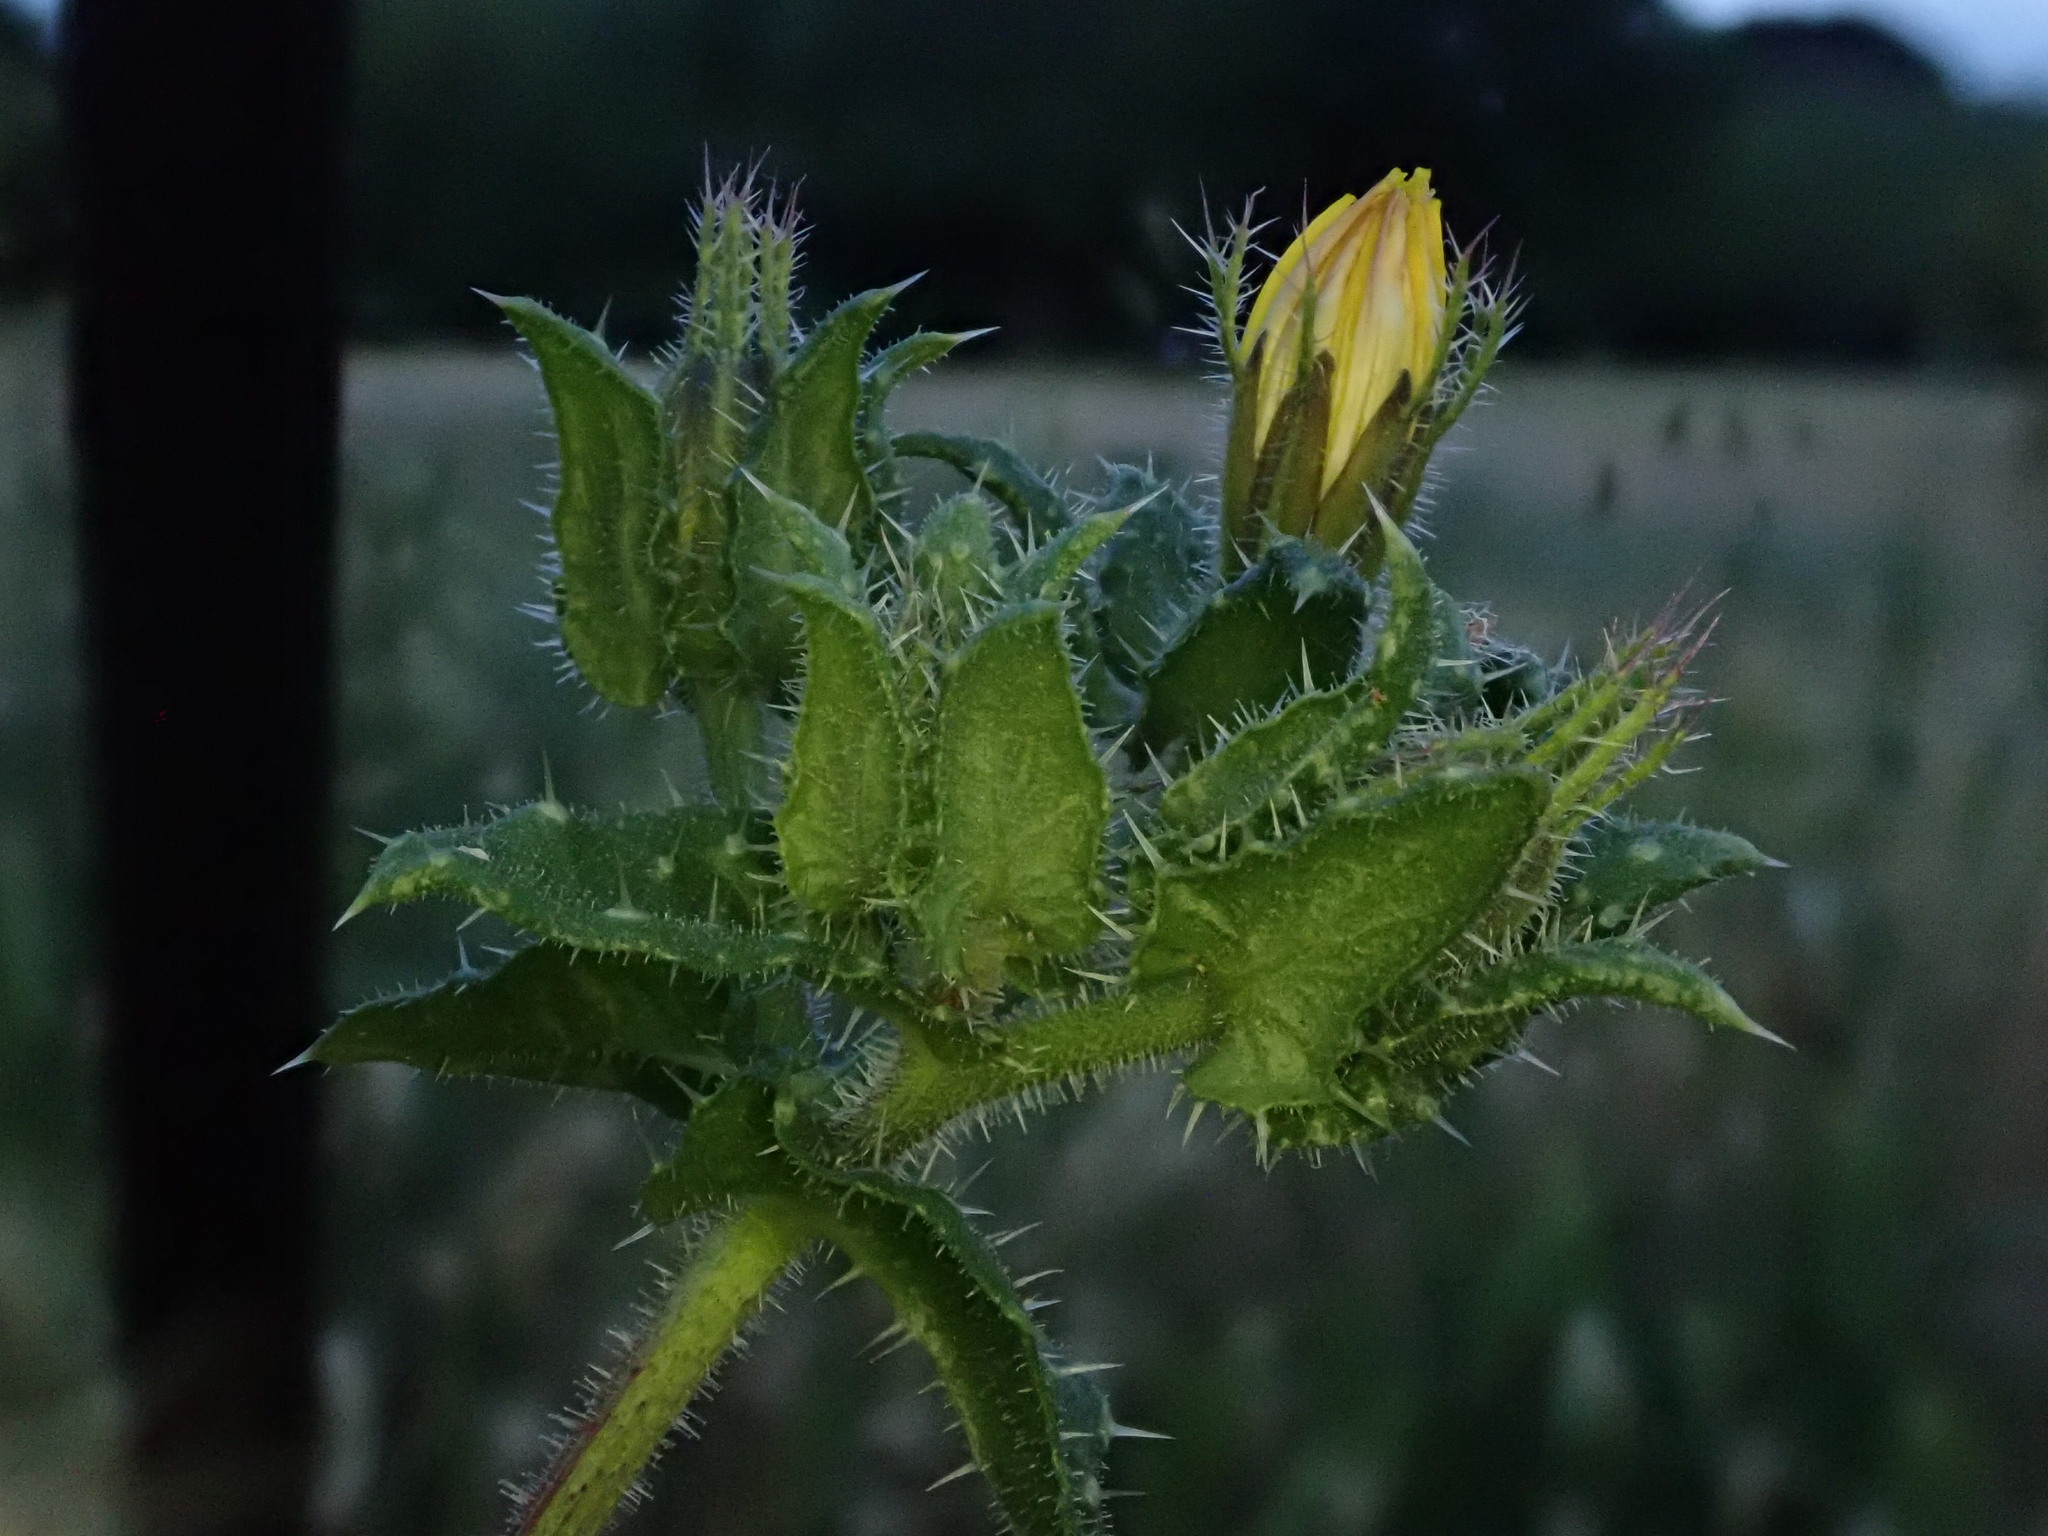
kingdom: Plantae
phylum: Tracheophyta
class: Magnoliopsida
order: Asterales
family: Asteraceae
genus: Helminthotheca
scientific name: Helminthotheca echioides
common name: Ox-tongue
